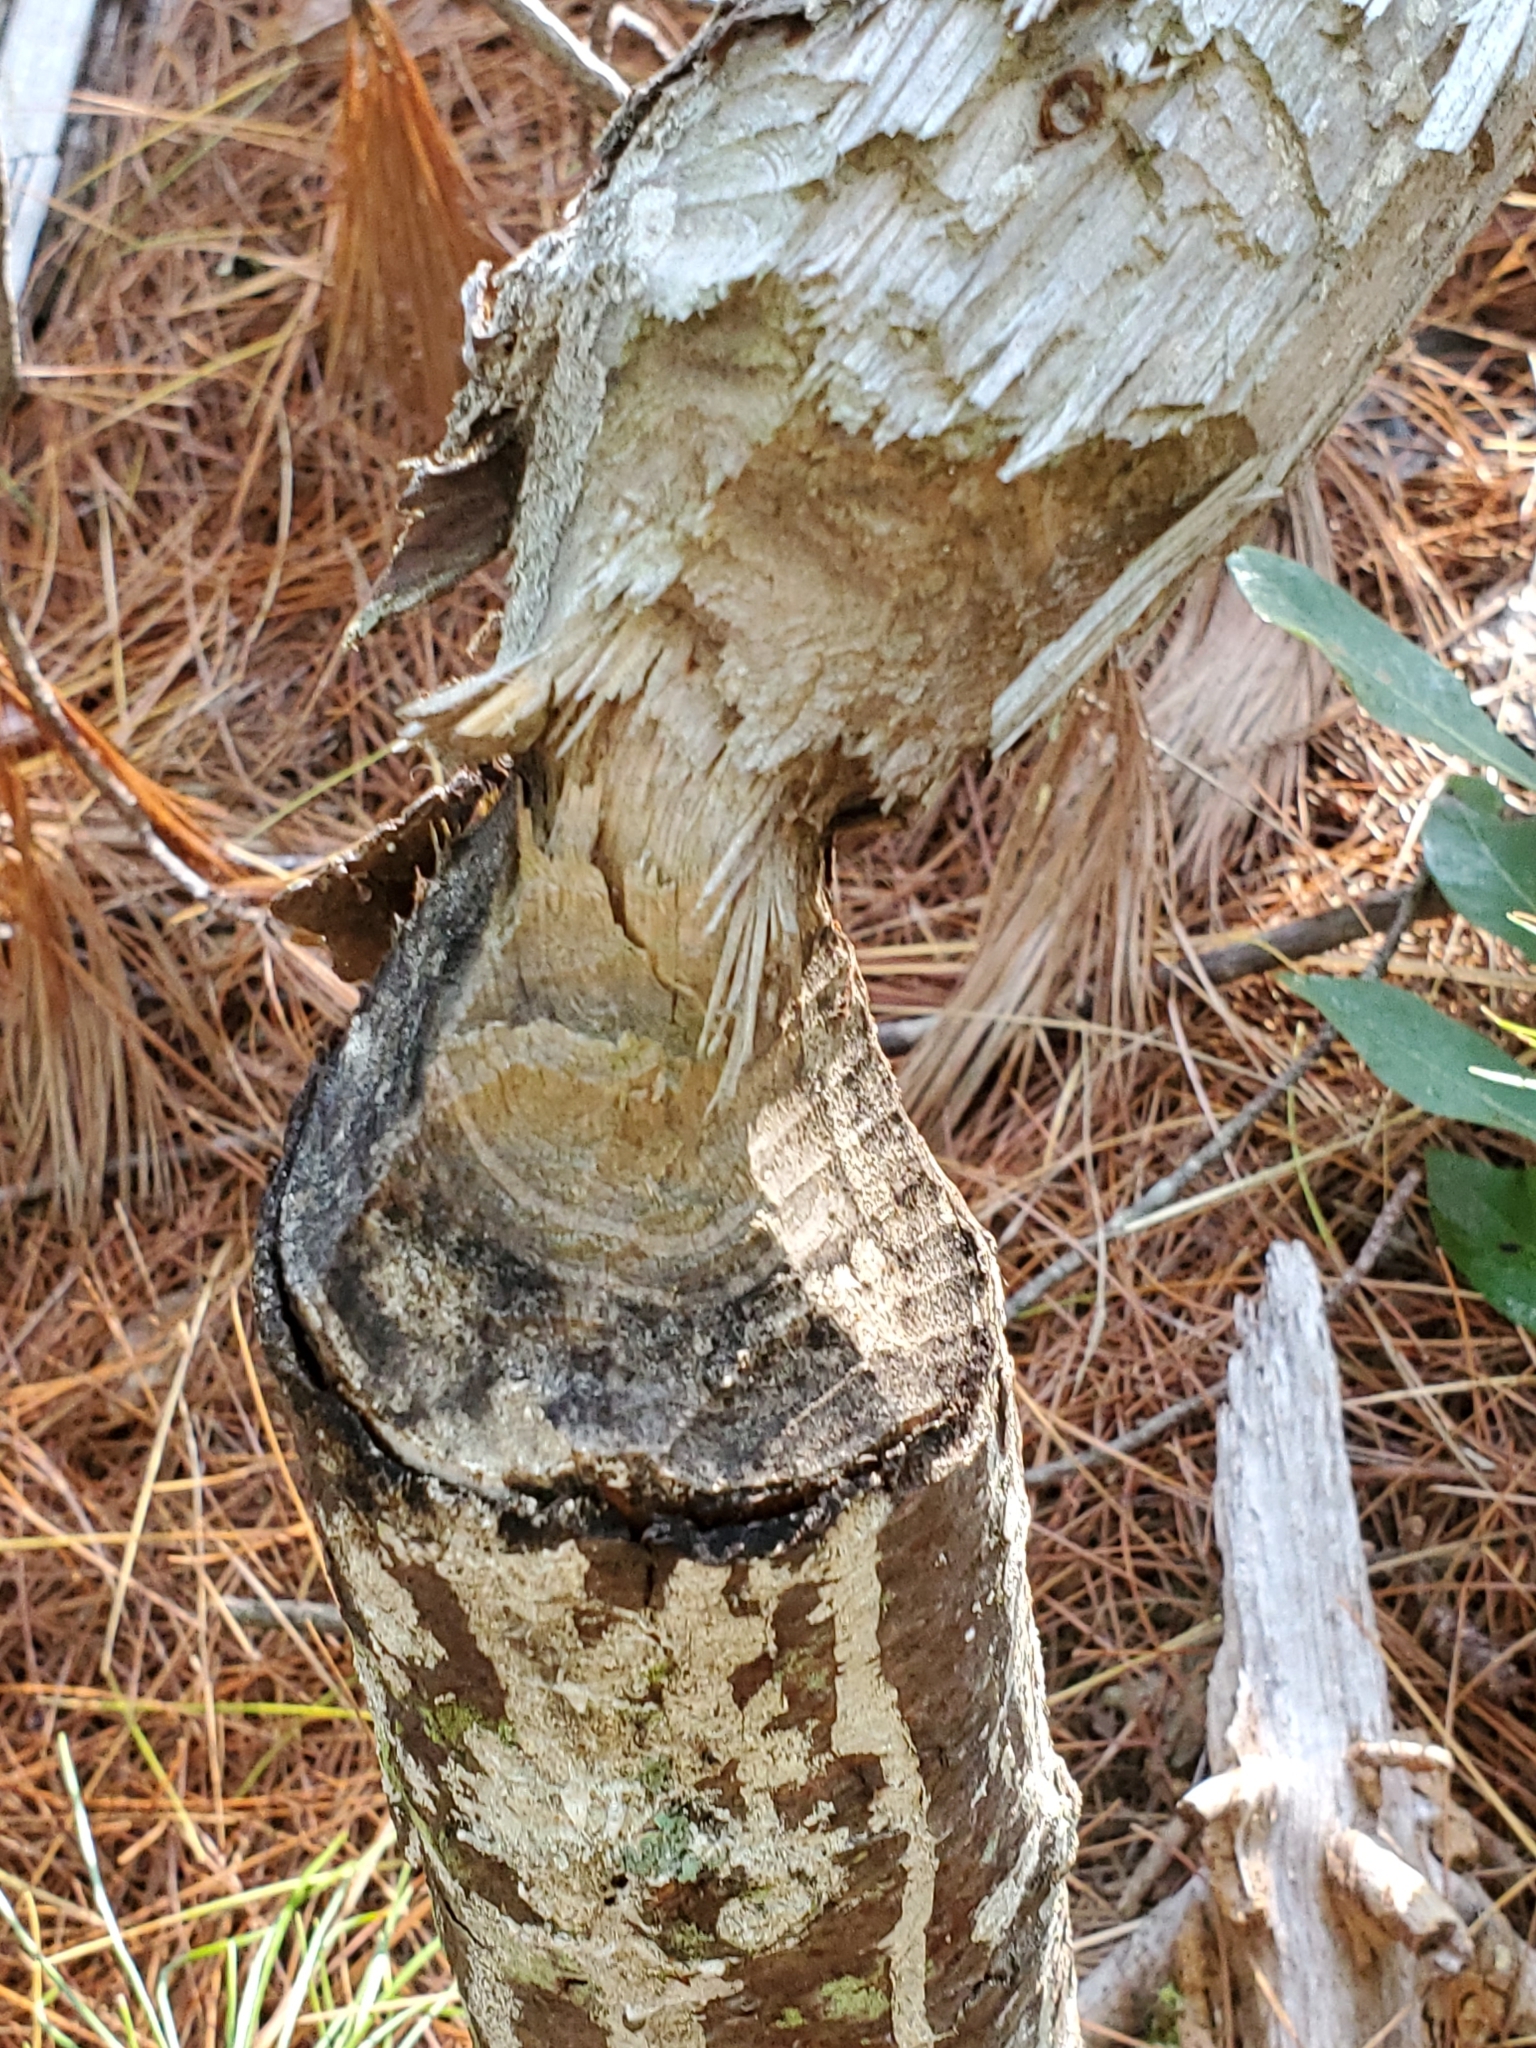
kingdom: Animalia
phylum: Chordata
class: Mammalia
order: Rodentia
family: Castoridae
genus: Castor
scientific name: Castor canadensis
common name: American beaver
